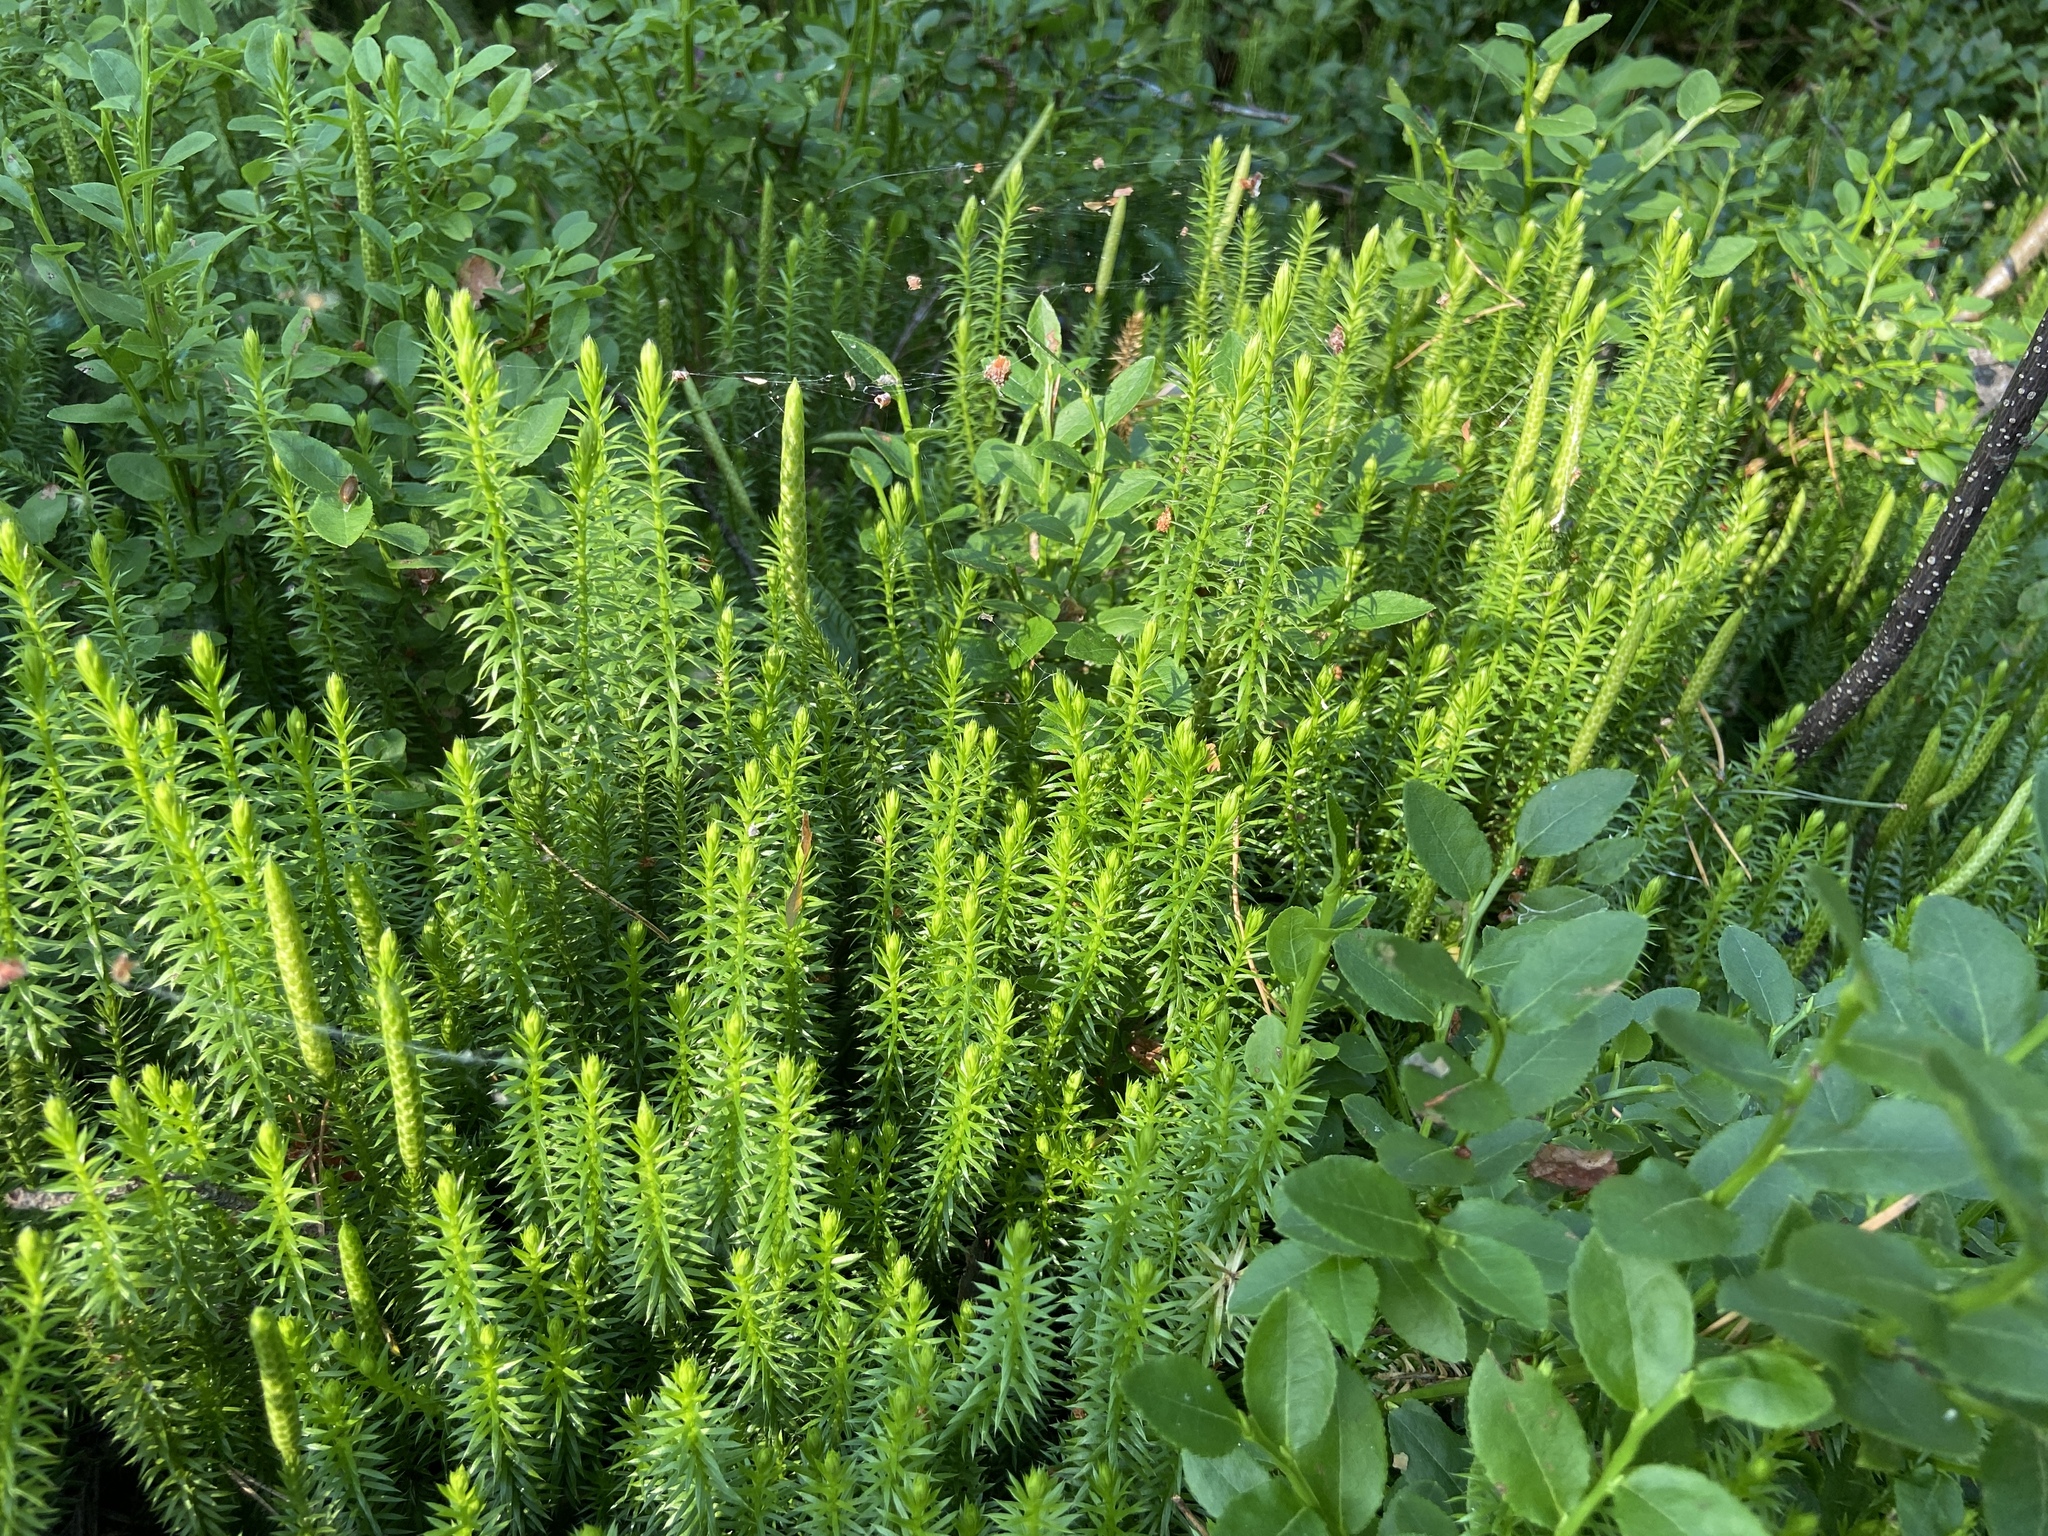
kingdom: Plantae
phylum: Tracheophyta
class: Lycopodiopsida
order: Lycopodiales
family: Lycopodiaceae
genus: Spinulum
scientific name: Spinulum annotinum
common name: Interrupted club-moss
